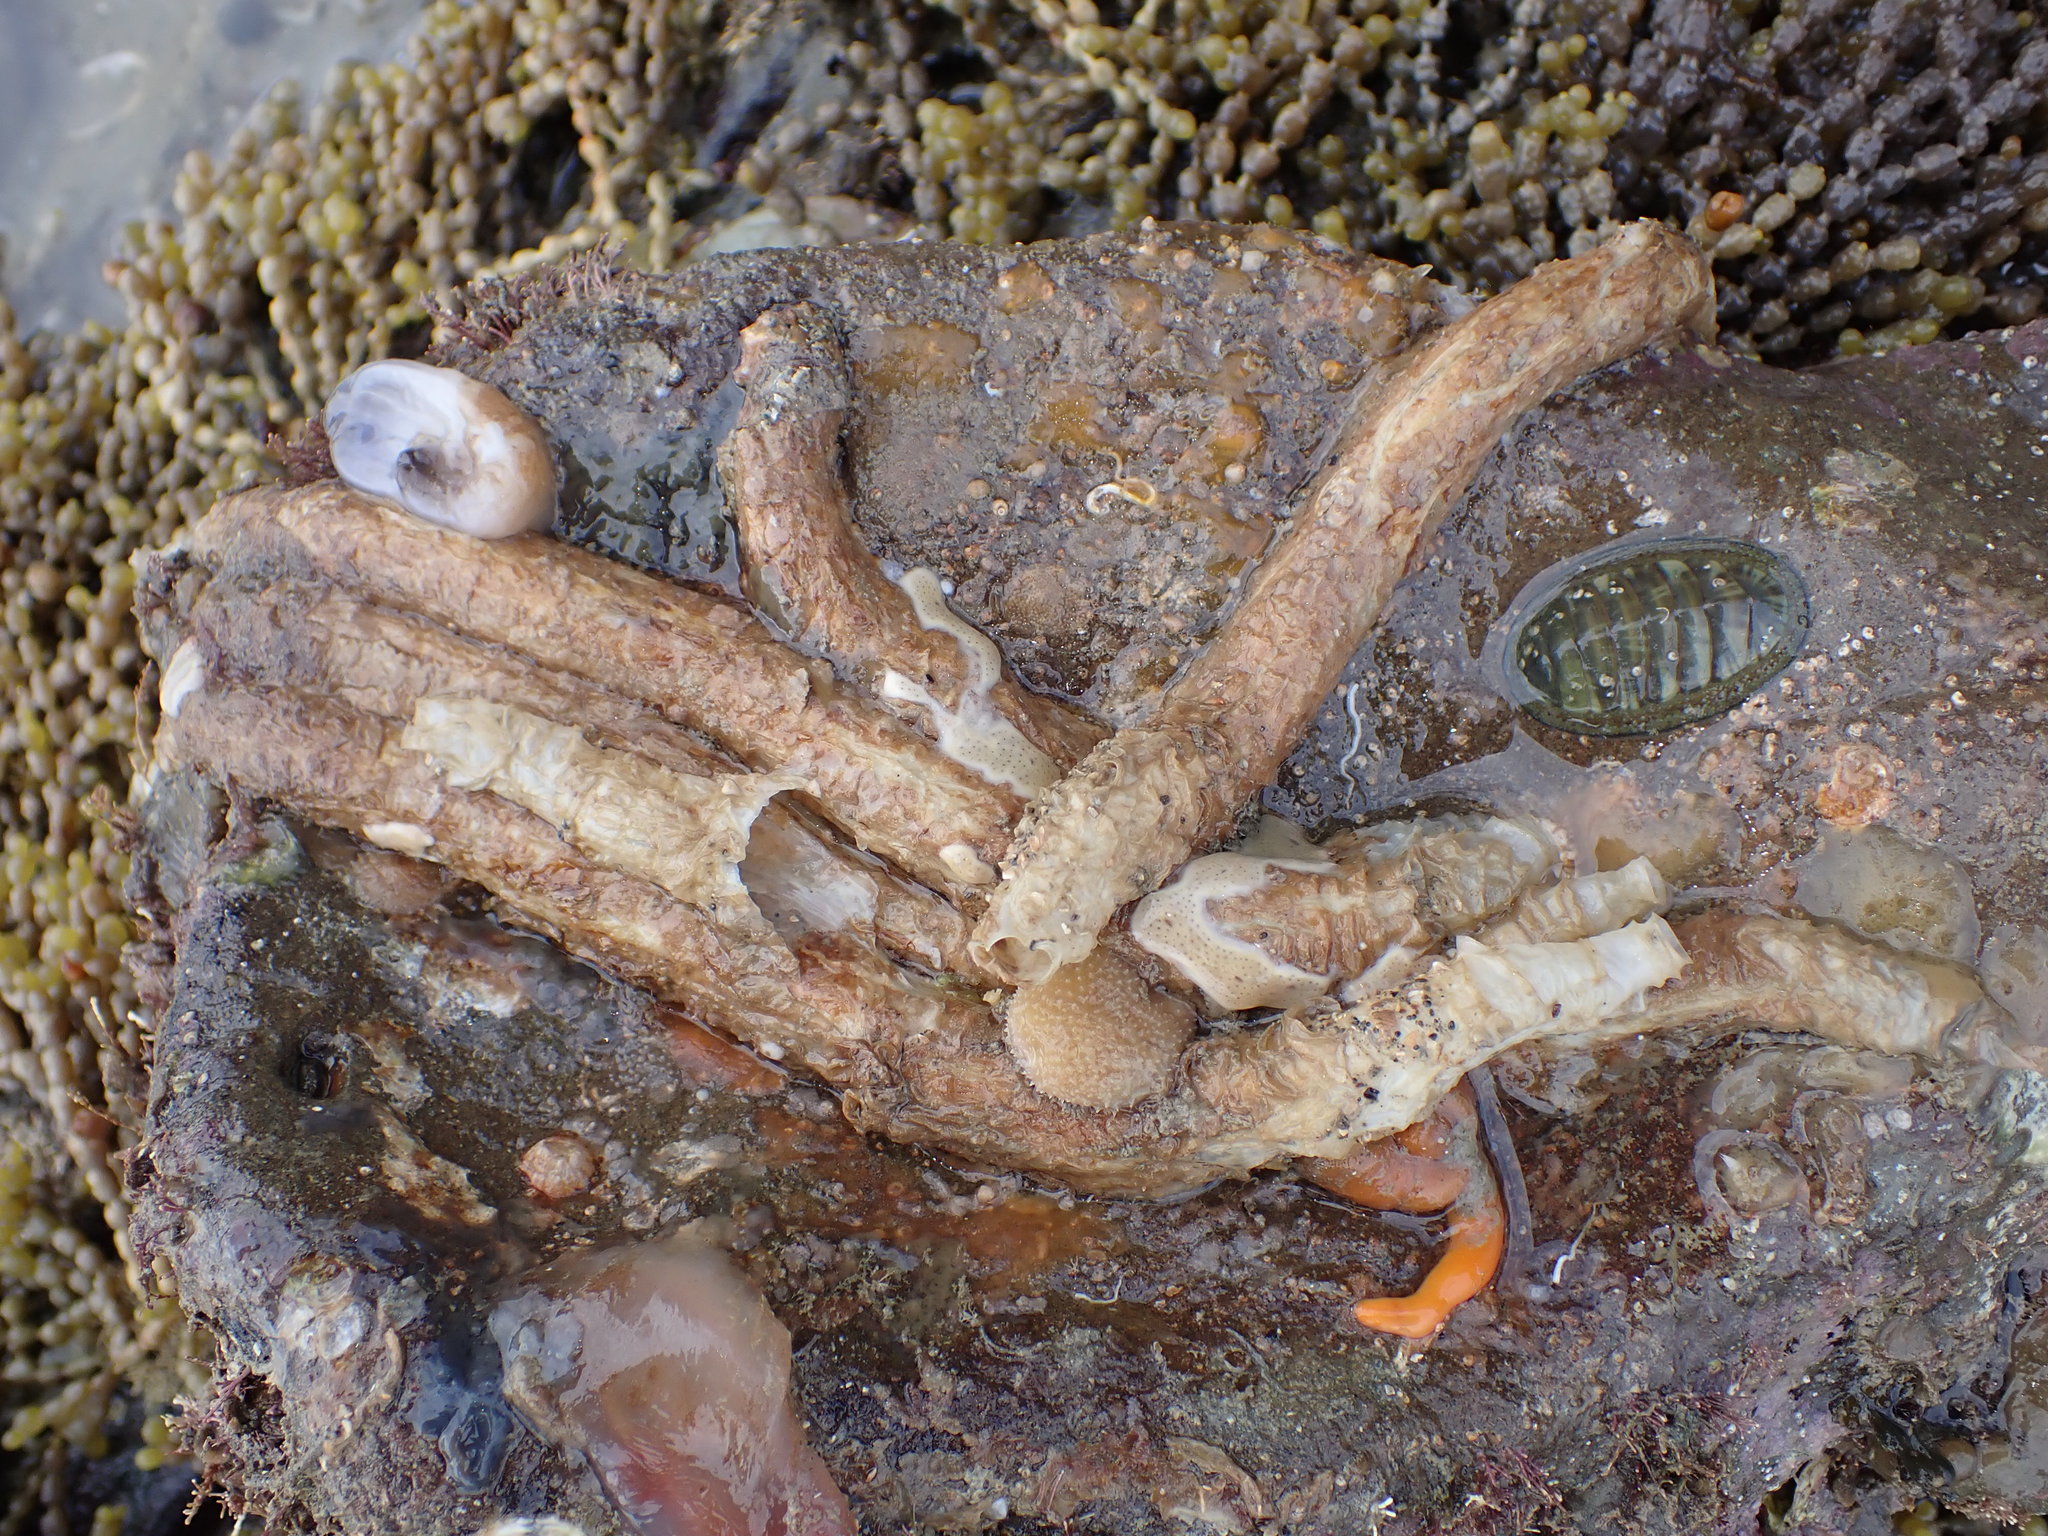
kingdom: Animalia
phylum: Mollusca
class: Polyplacophora
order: Chitonida
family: Acanthochitonidae
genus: Notoplax
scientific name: Notoplax violacea
